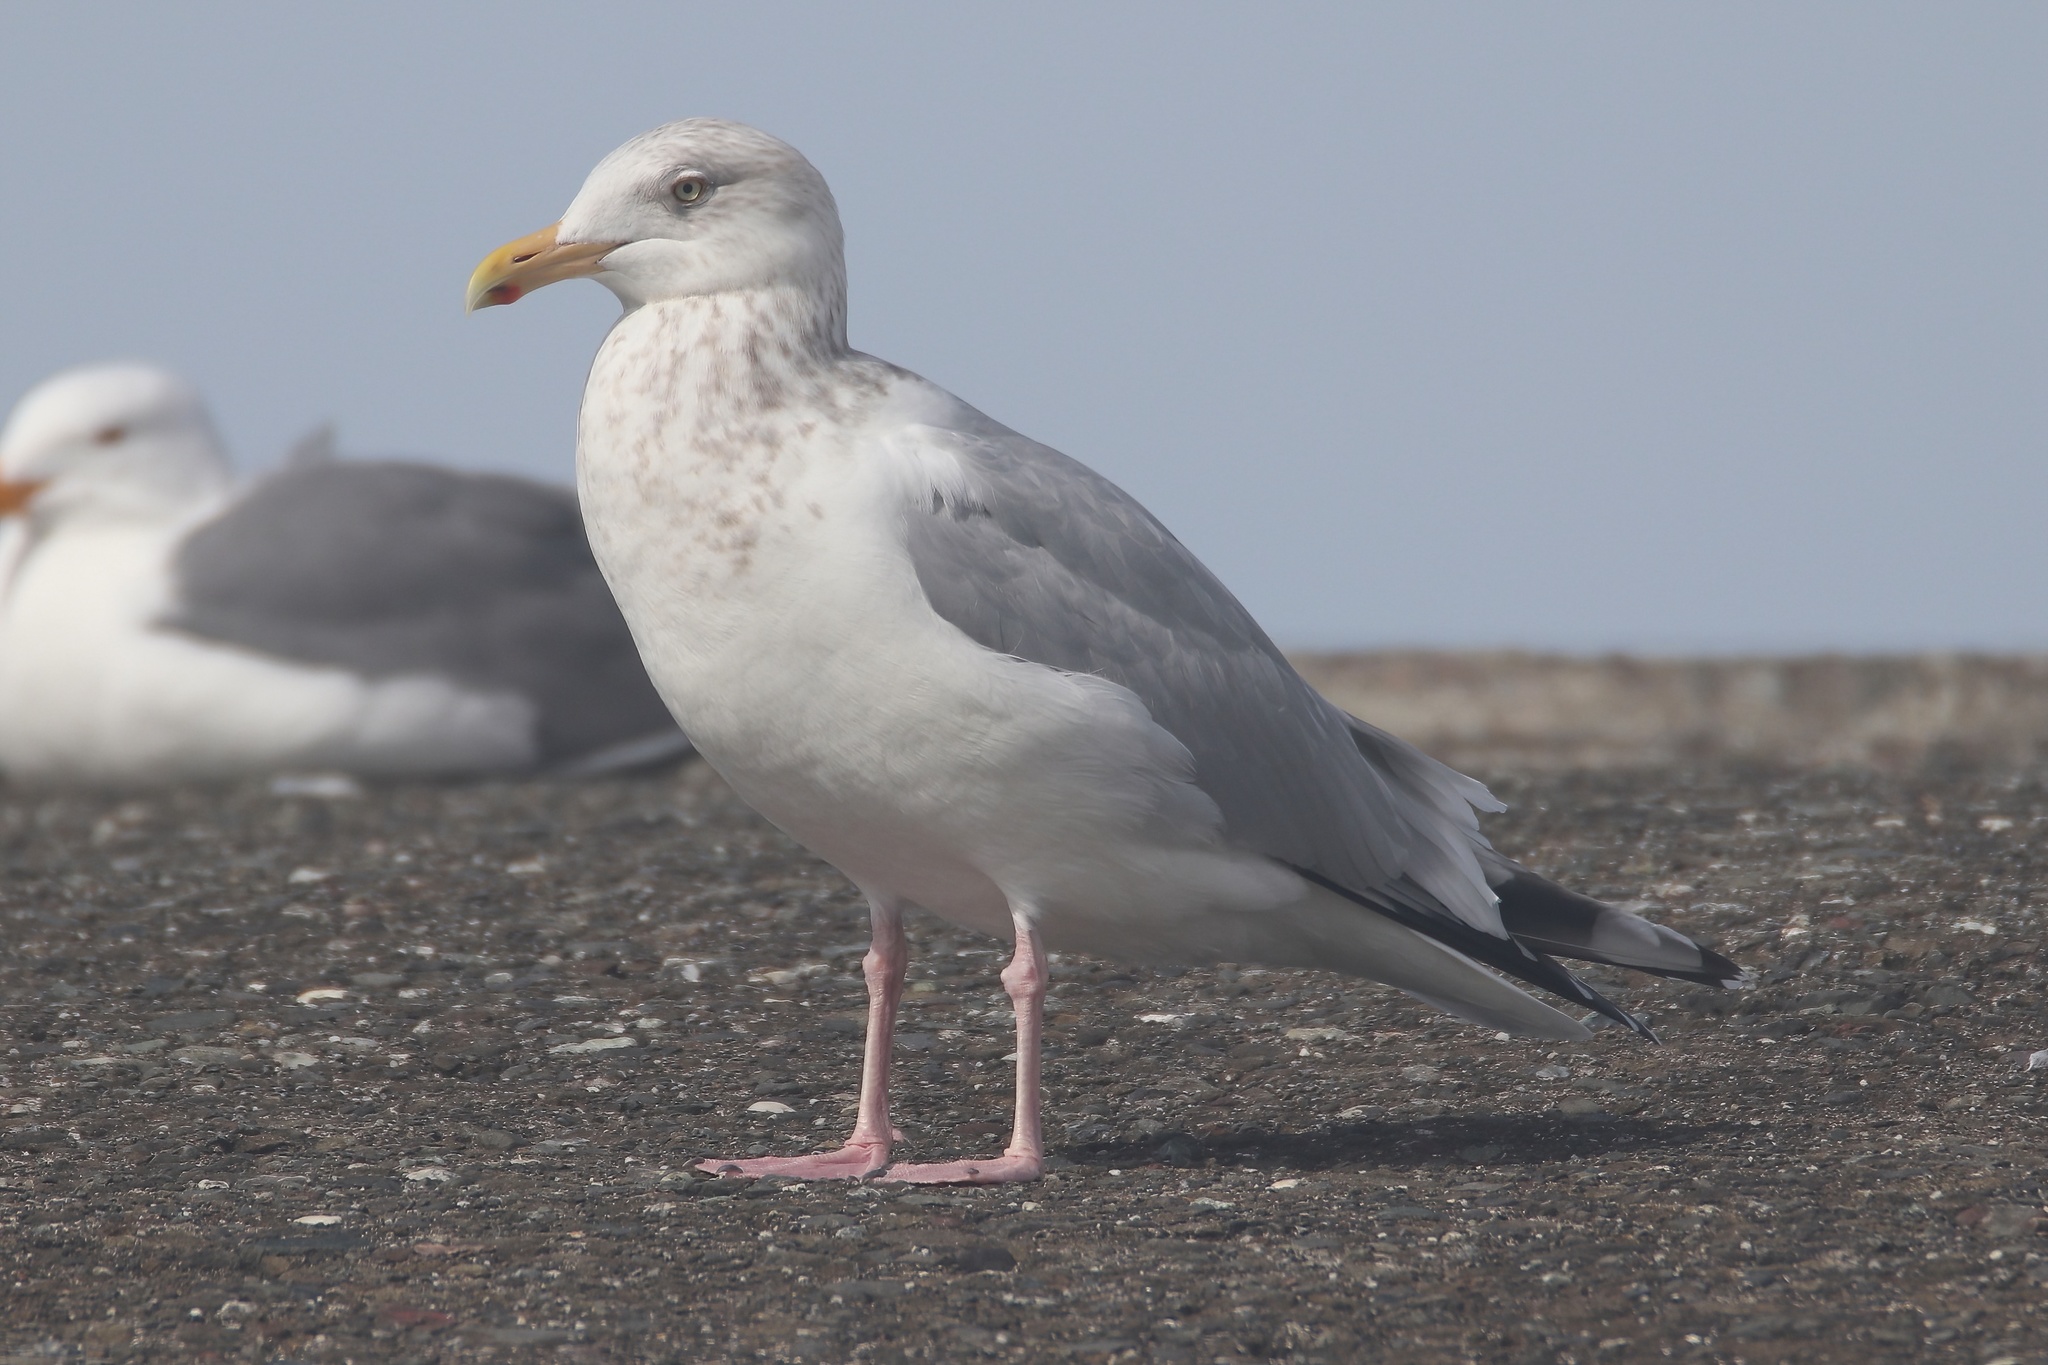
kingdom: Animalia
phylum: Chordata
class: Aves
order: Charadriiformes
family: Laridae
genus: Larus
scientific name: Larus argentatus
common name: Herring gull
